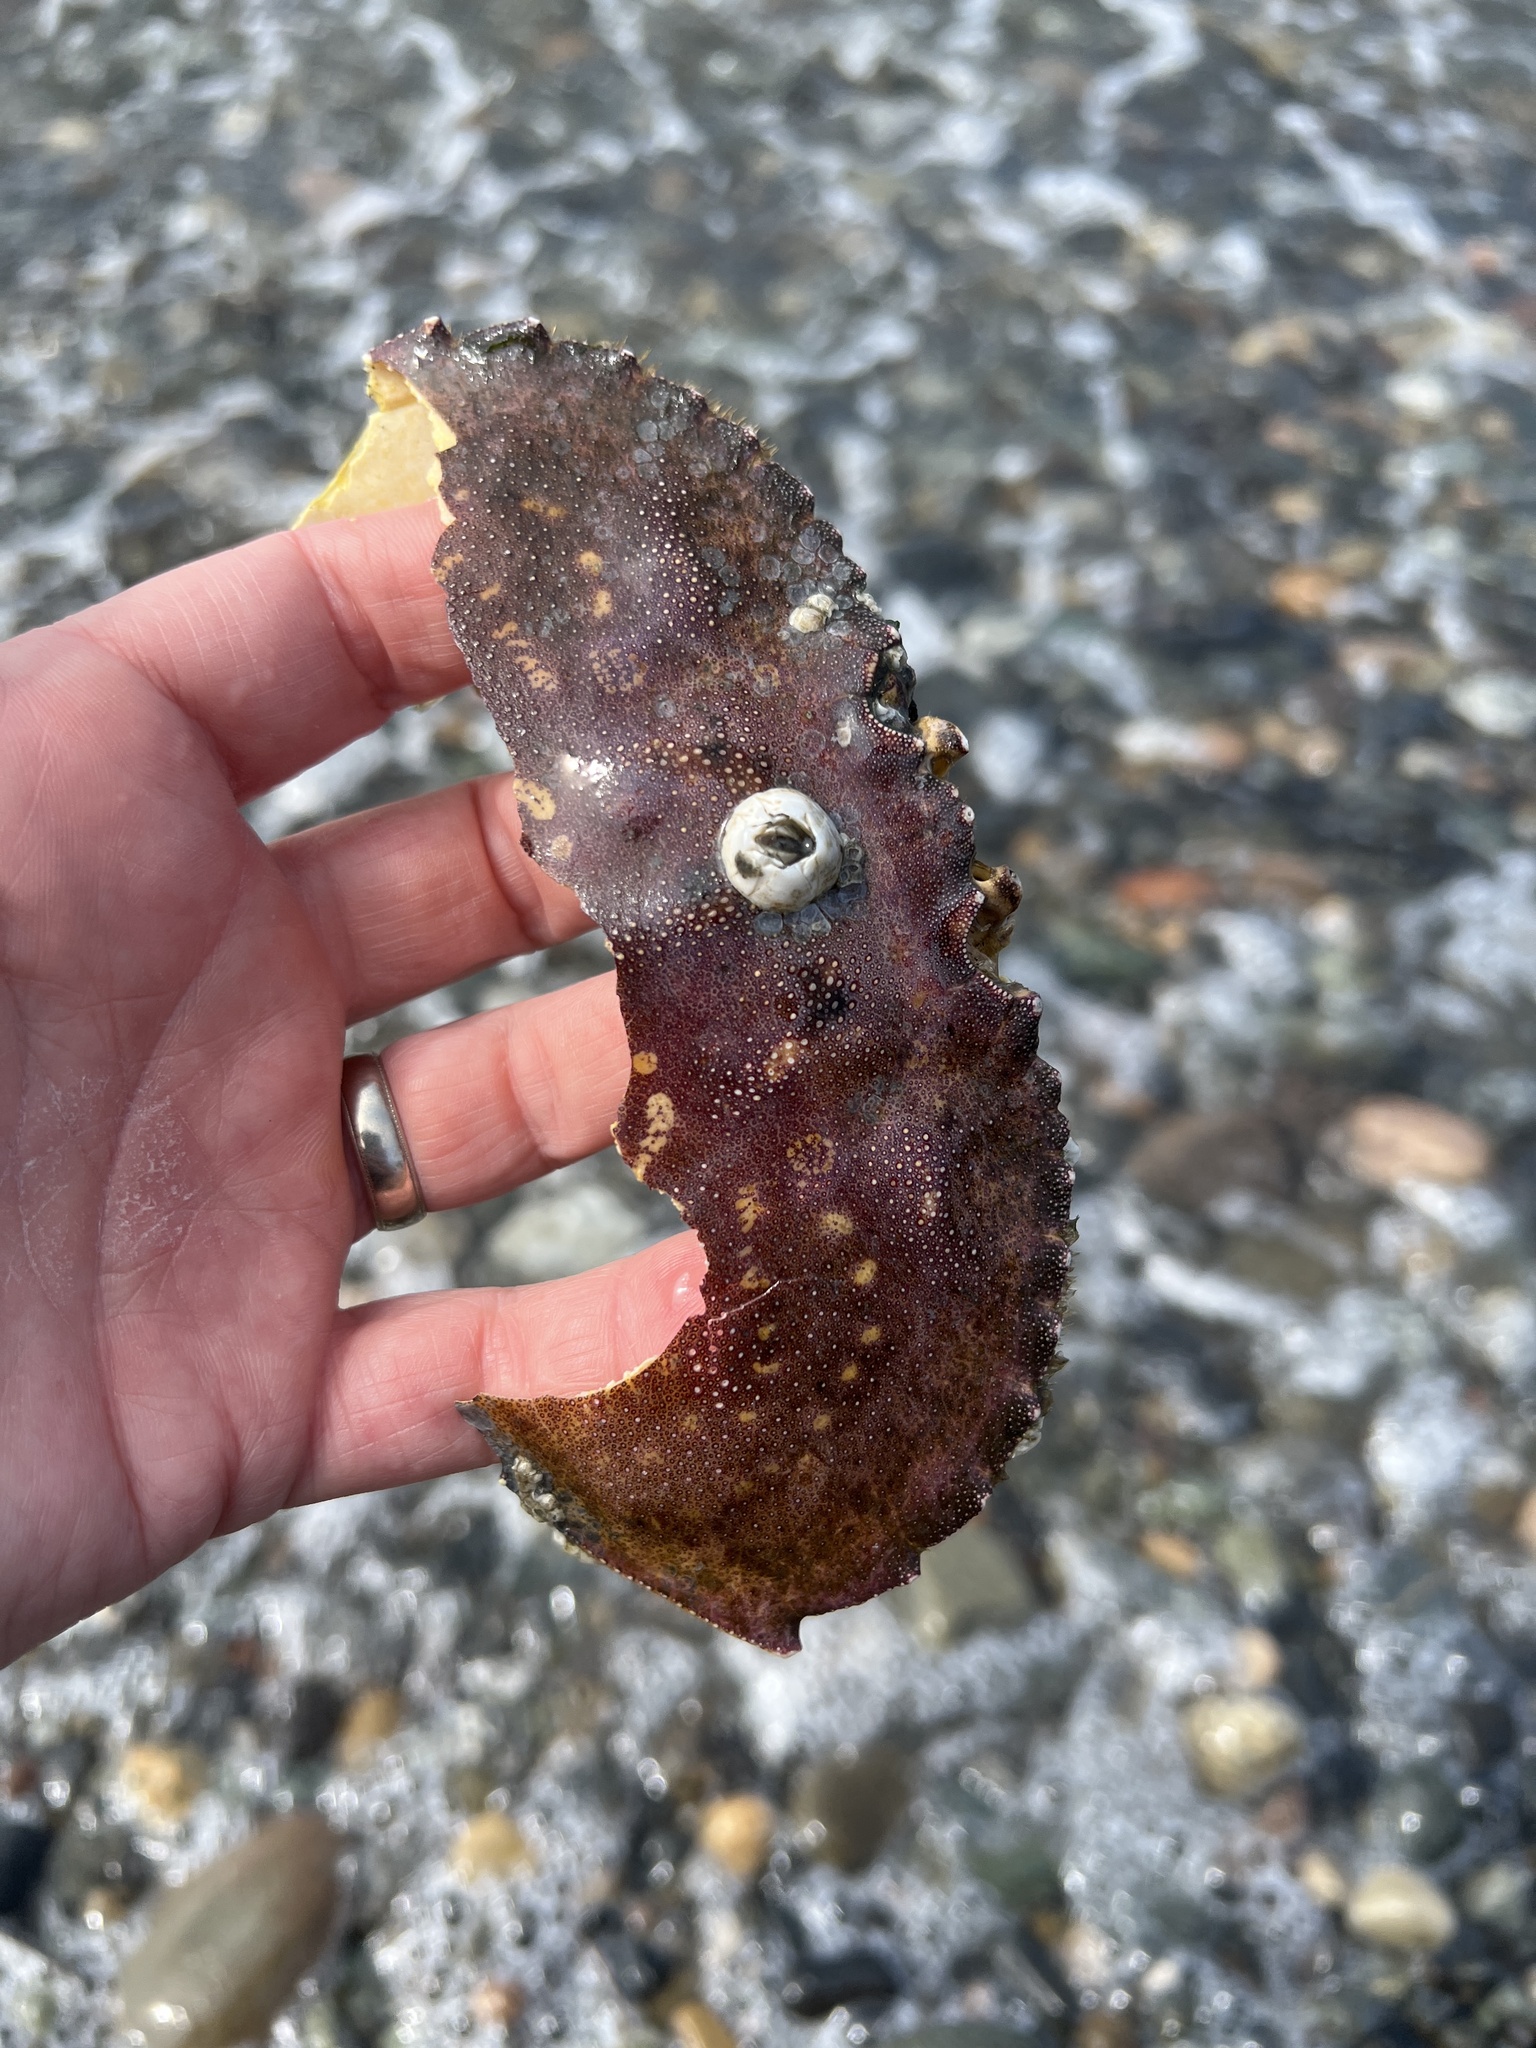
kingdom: Animalia
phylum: Arthropoda
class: Malacostraca
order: Decapoda
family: Cancridae
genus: Metacarcinus
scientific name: Metacarcinus magister
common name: Californian crab
